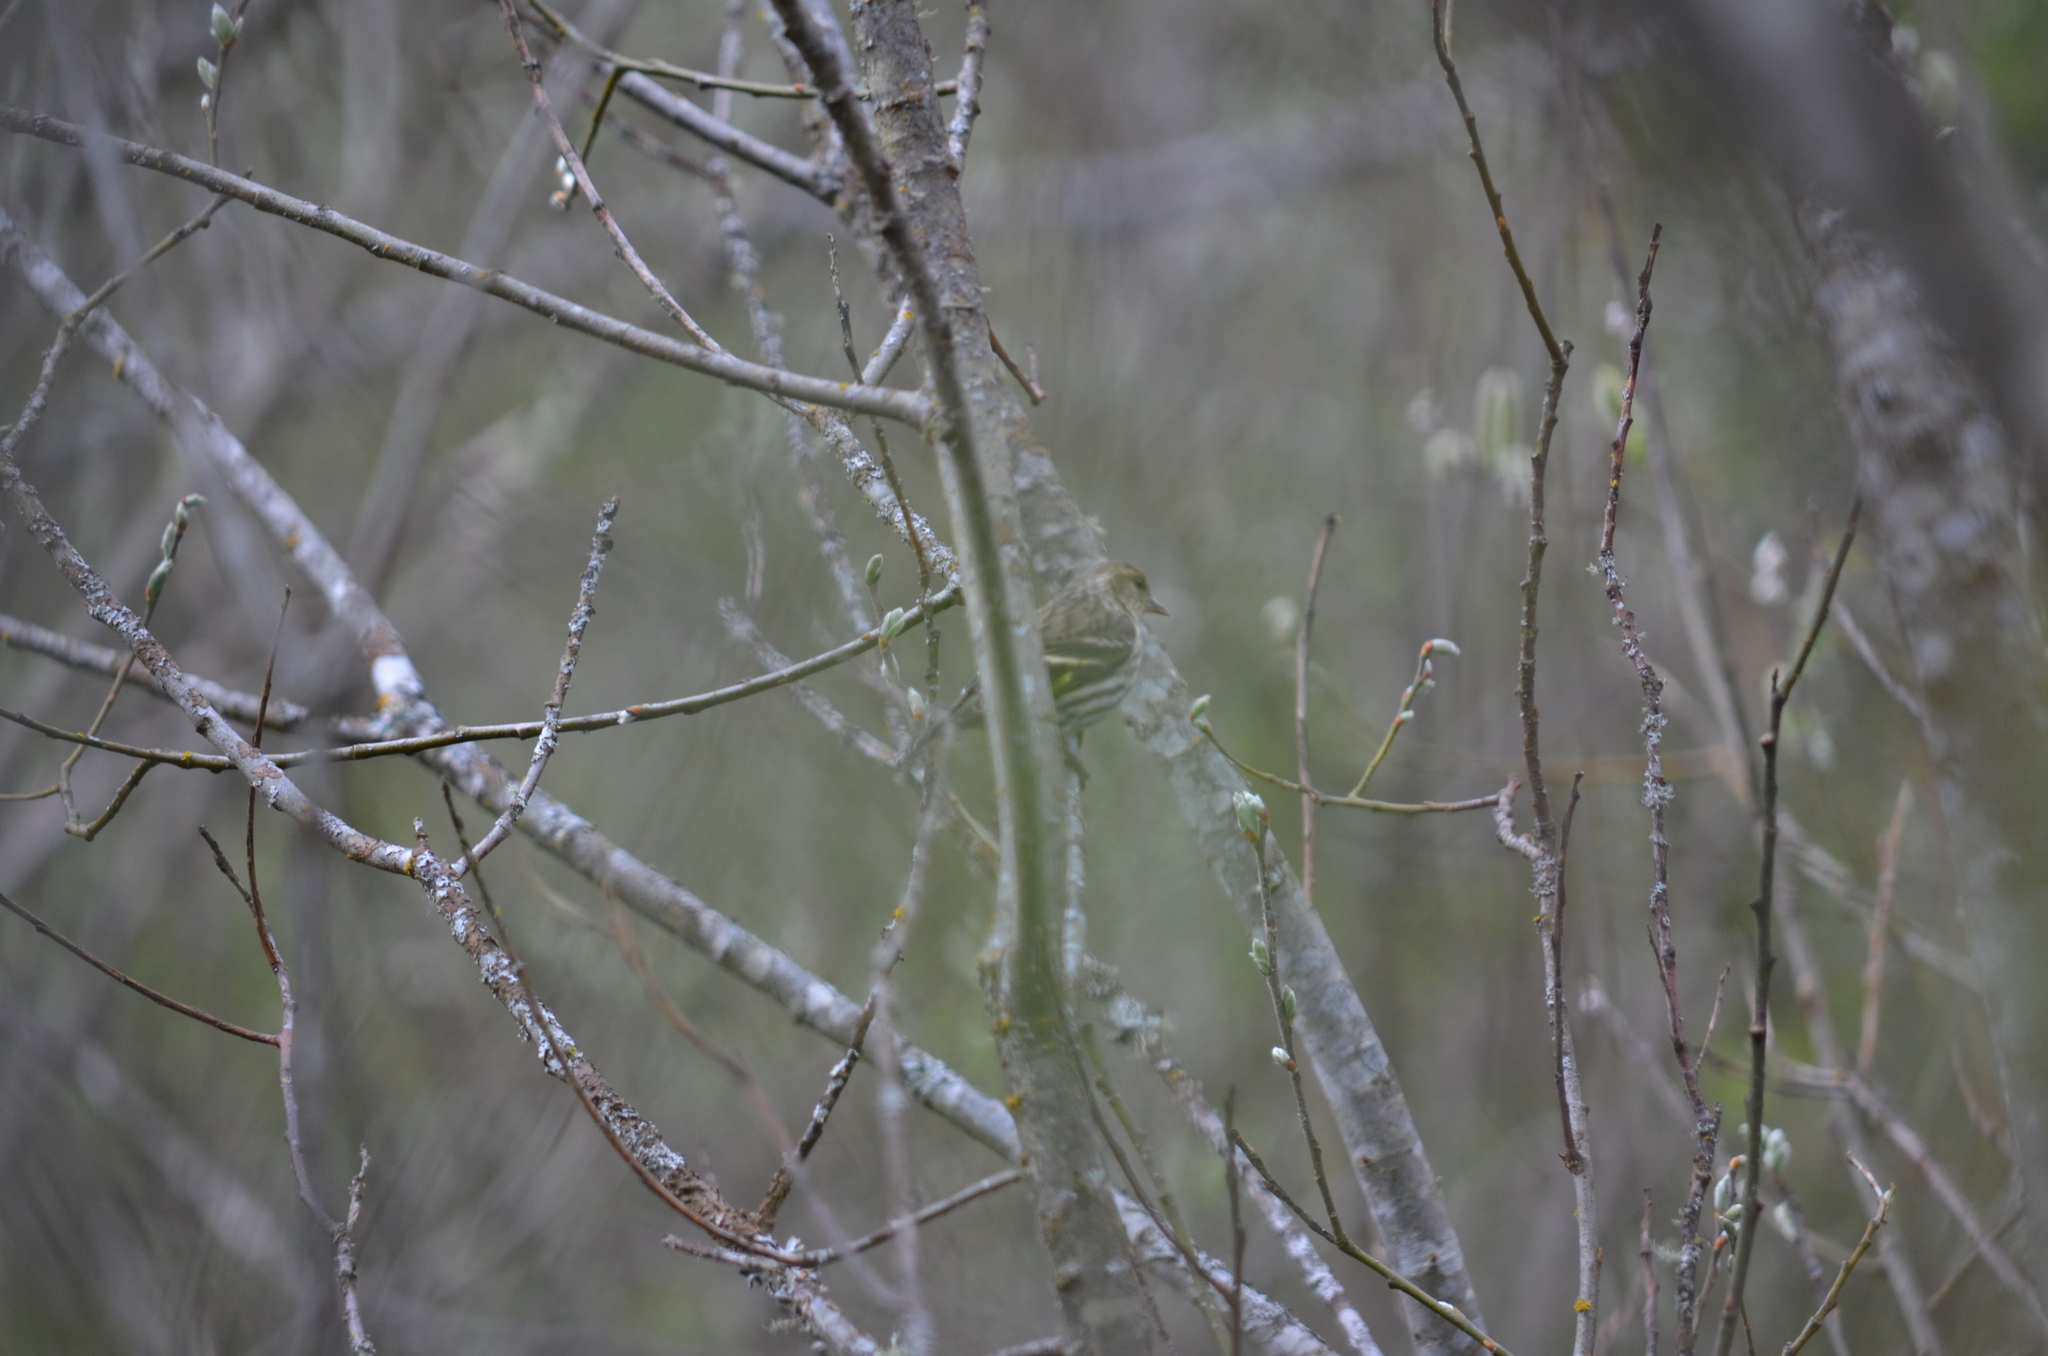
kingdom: Animalia
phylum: Chordata
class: Aves
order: Passeriformes
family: Fringillidae
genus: Spinus
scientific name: Spinus pinus
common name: Pine siskin
